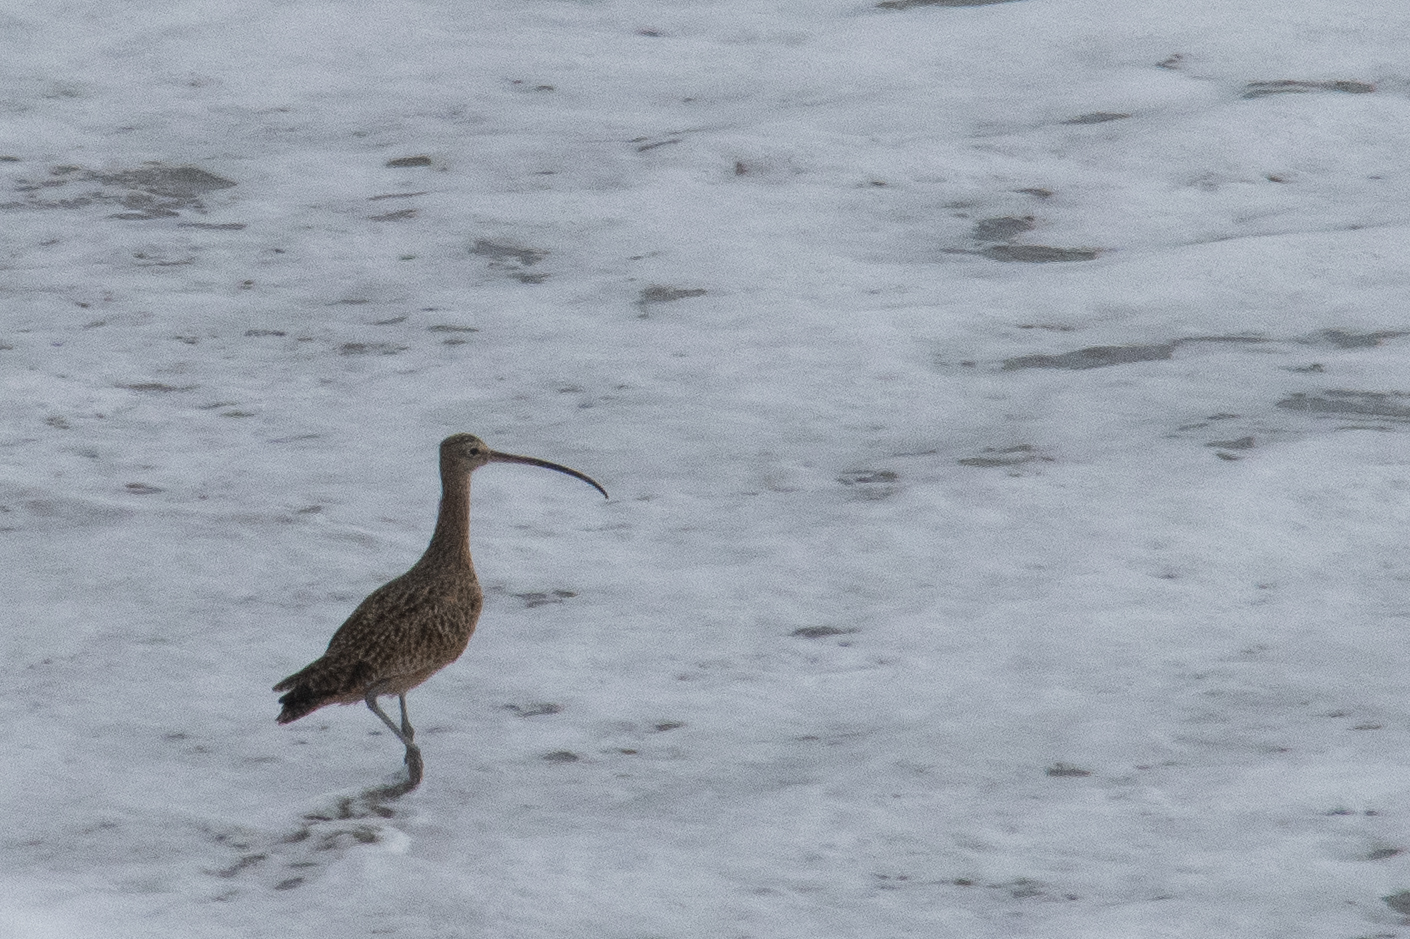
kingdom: Animalia
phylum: Chordata
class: Aves
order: Charadriiformes
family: Scolopacidae
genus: Numenius
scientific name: Numenius americanus
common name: Long-billed curlew
